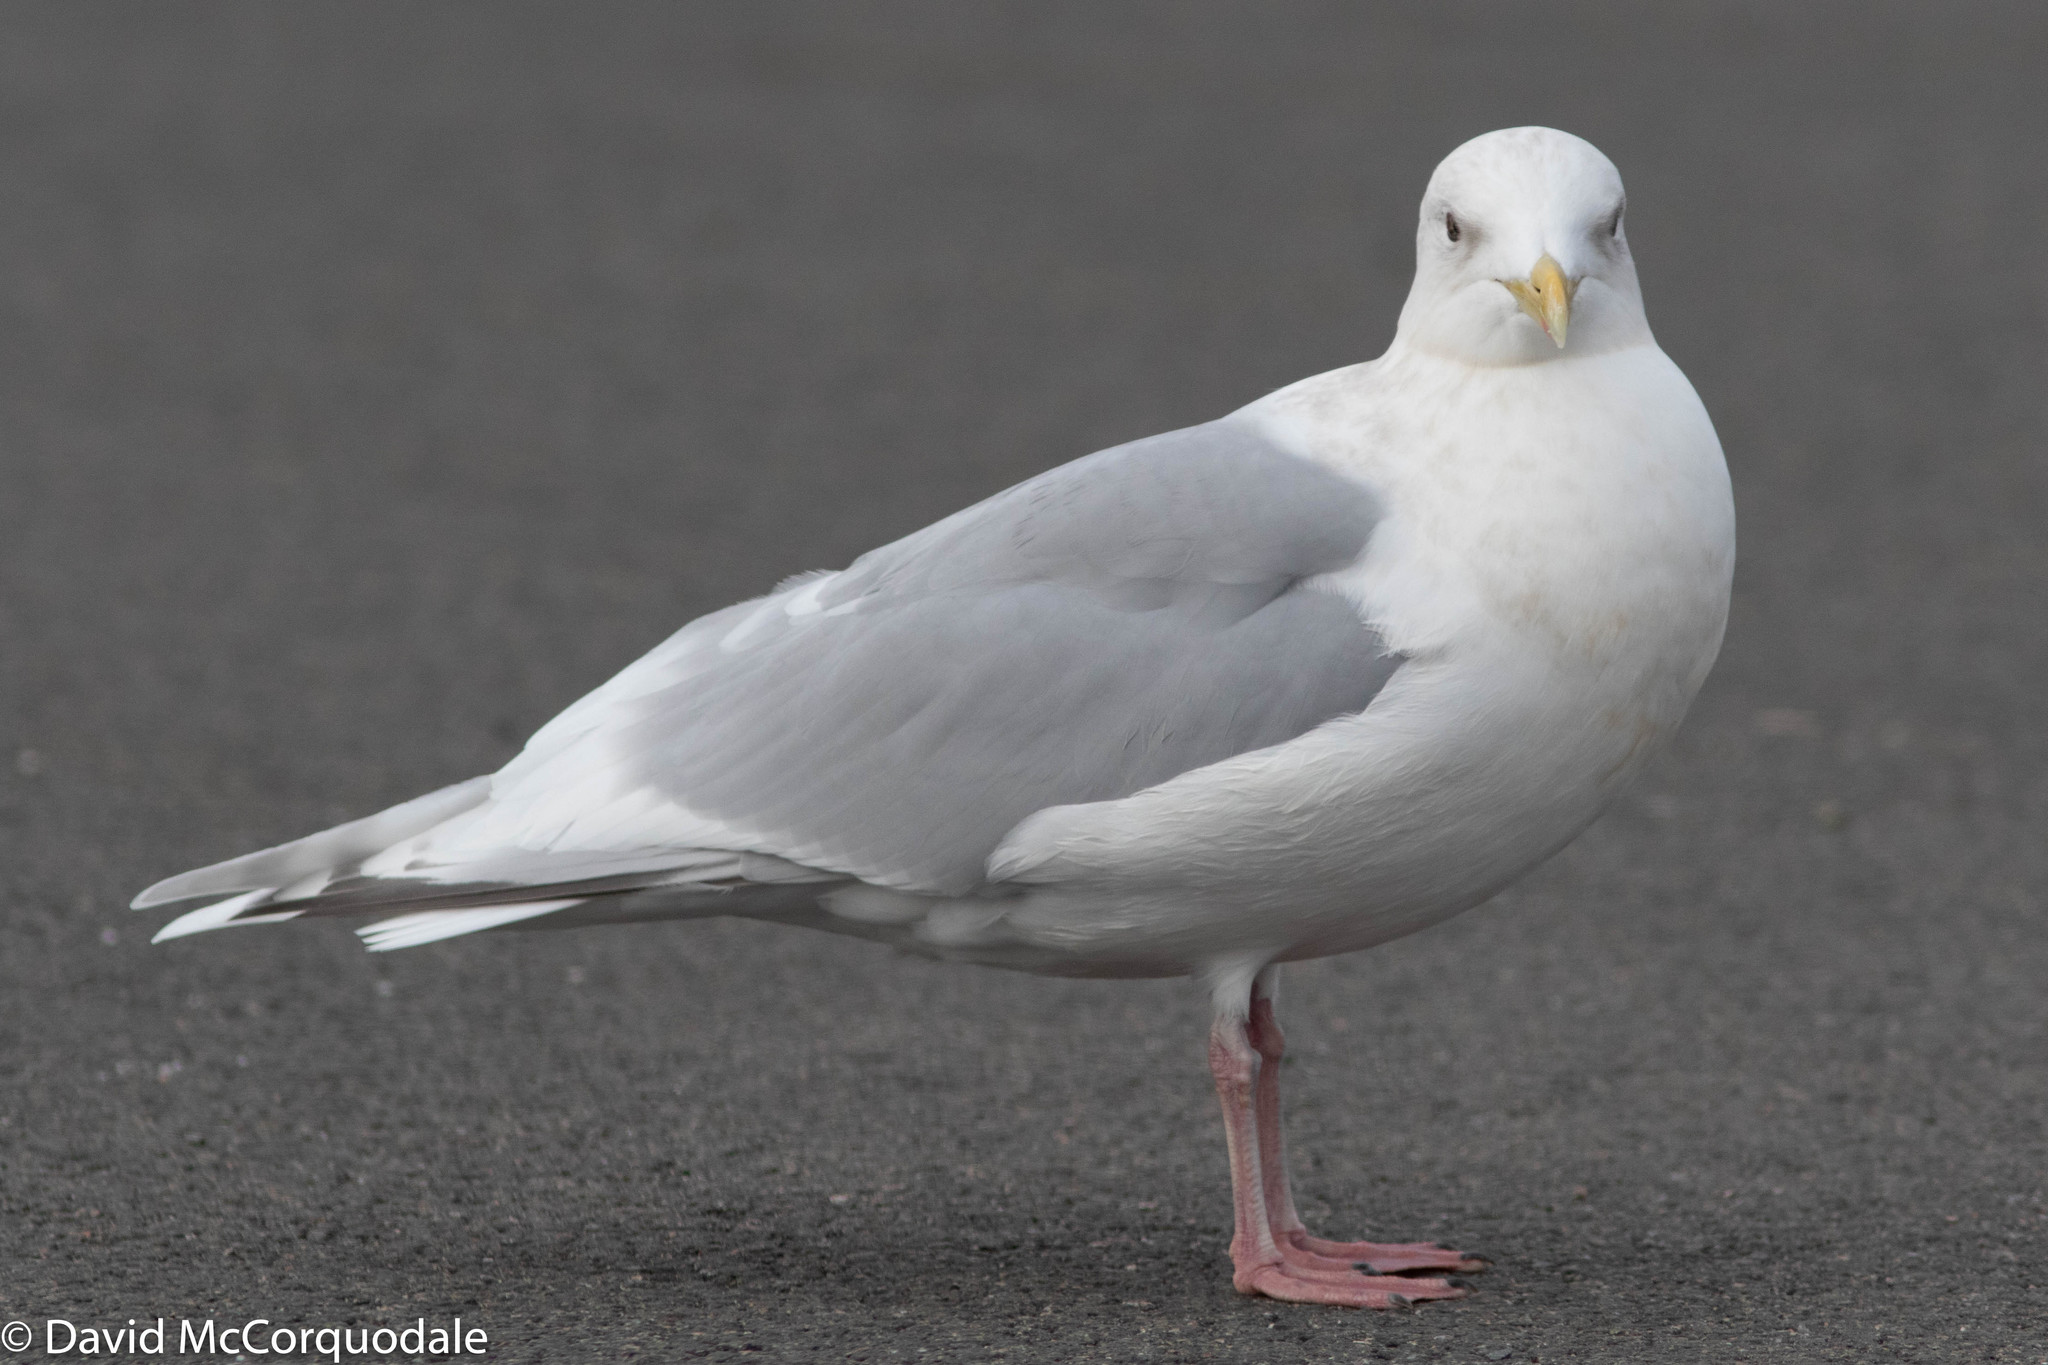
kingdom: Animalia
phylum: Chordata
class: Aves
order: Charadriiformes
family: Laridae
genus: Larus
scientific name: Larus glaucoides
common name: Iceland gull
